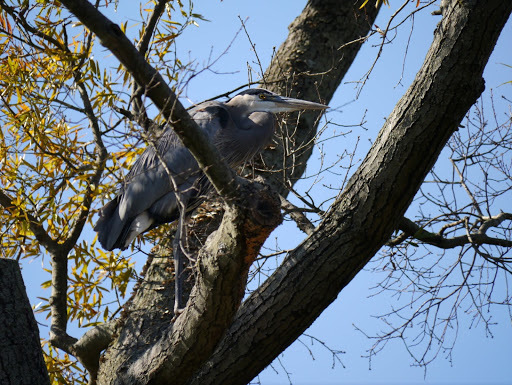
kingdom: Animalia
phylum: Chordata
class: Aves
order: Pelecaniformes
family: Ardeidae
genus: Ardea
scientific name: Ardea herodias
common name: Great blue heron
